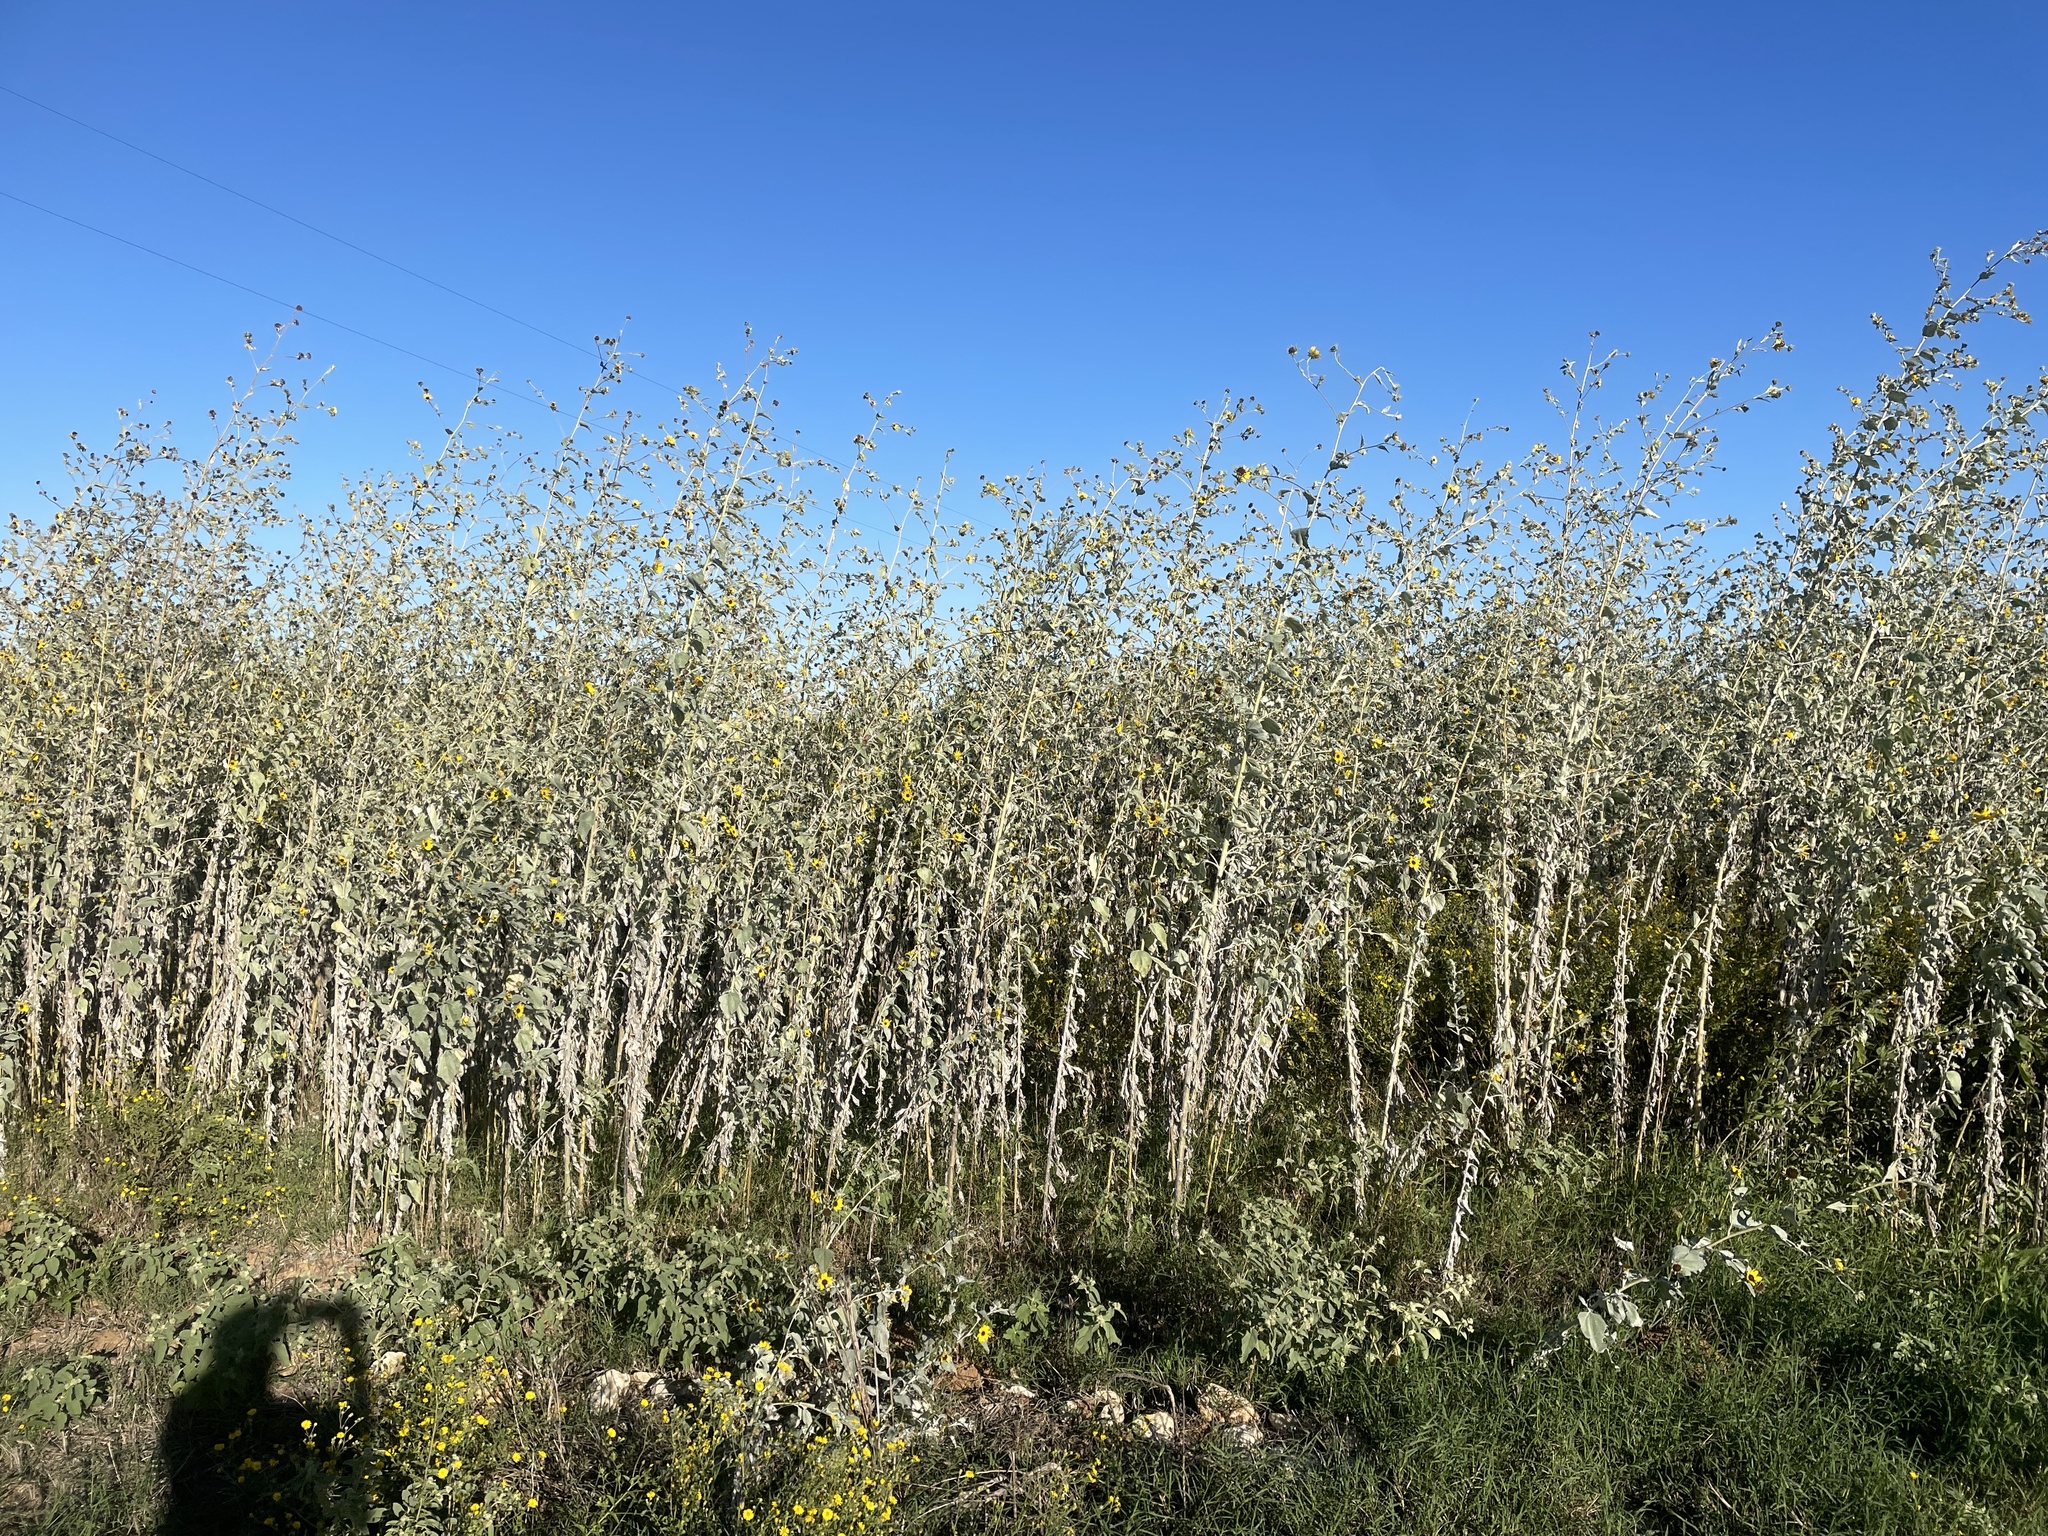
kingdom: Plantae
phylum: Tracheophyta
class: Magnoliopsida
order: Asterales
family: Asteraceae
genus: Helianthus
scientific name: Helianthus argophyllus
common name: Silverleaf sunflower
